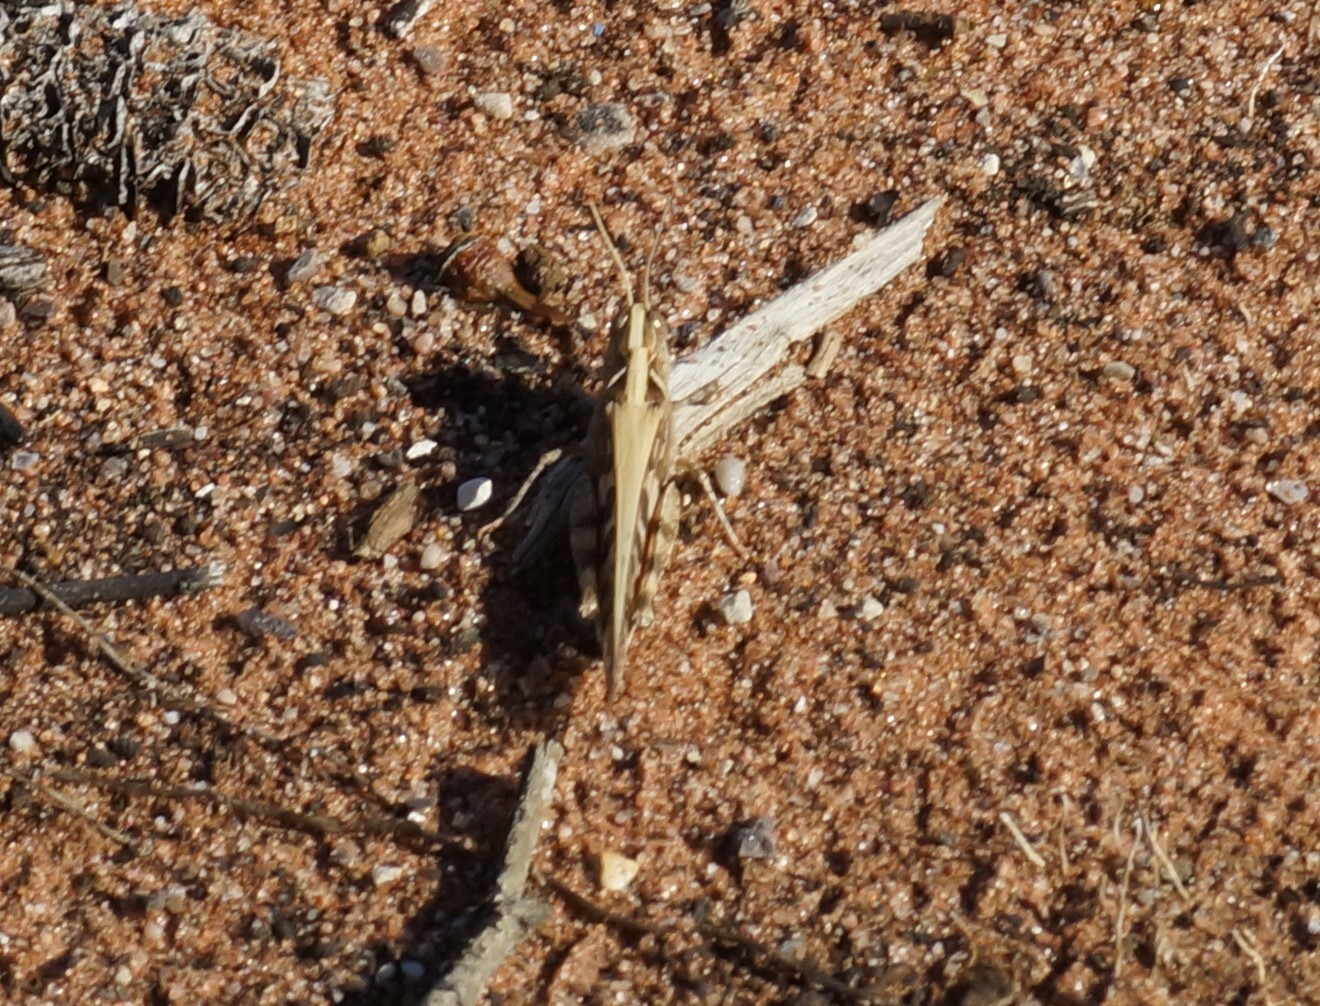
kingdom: Animalia
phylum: Arthropoda
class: Insecta
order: Orthoptera
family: Acrididae
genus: Chortoicetes
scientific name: Chortoicetes terminifera
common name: Australian plague locust
